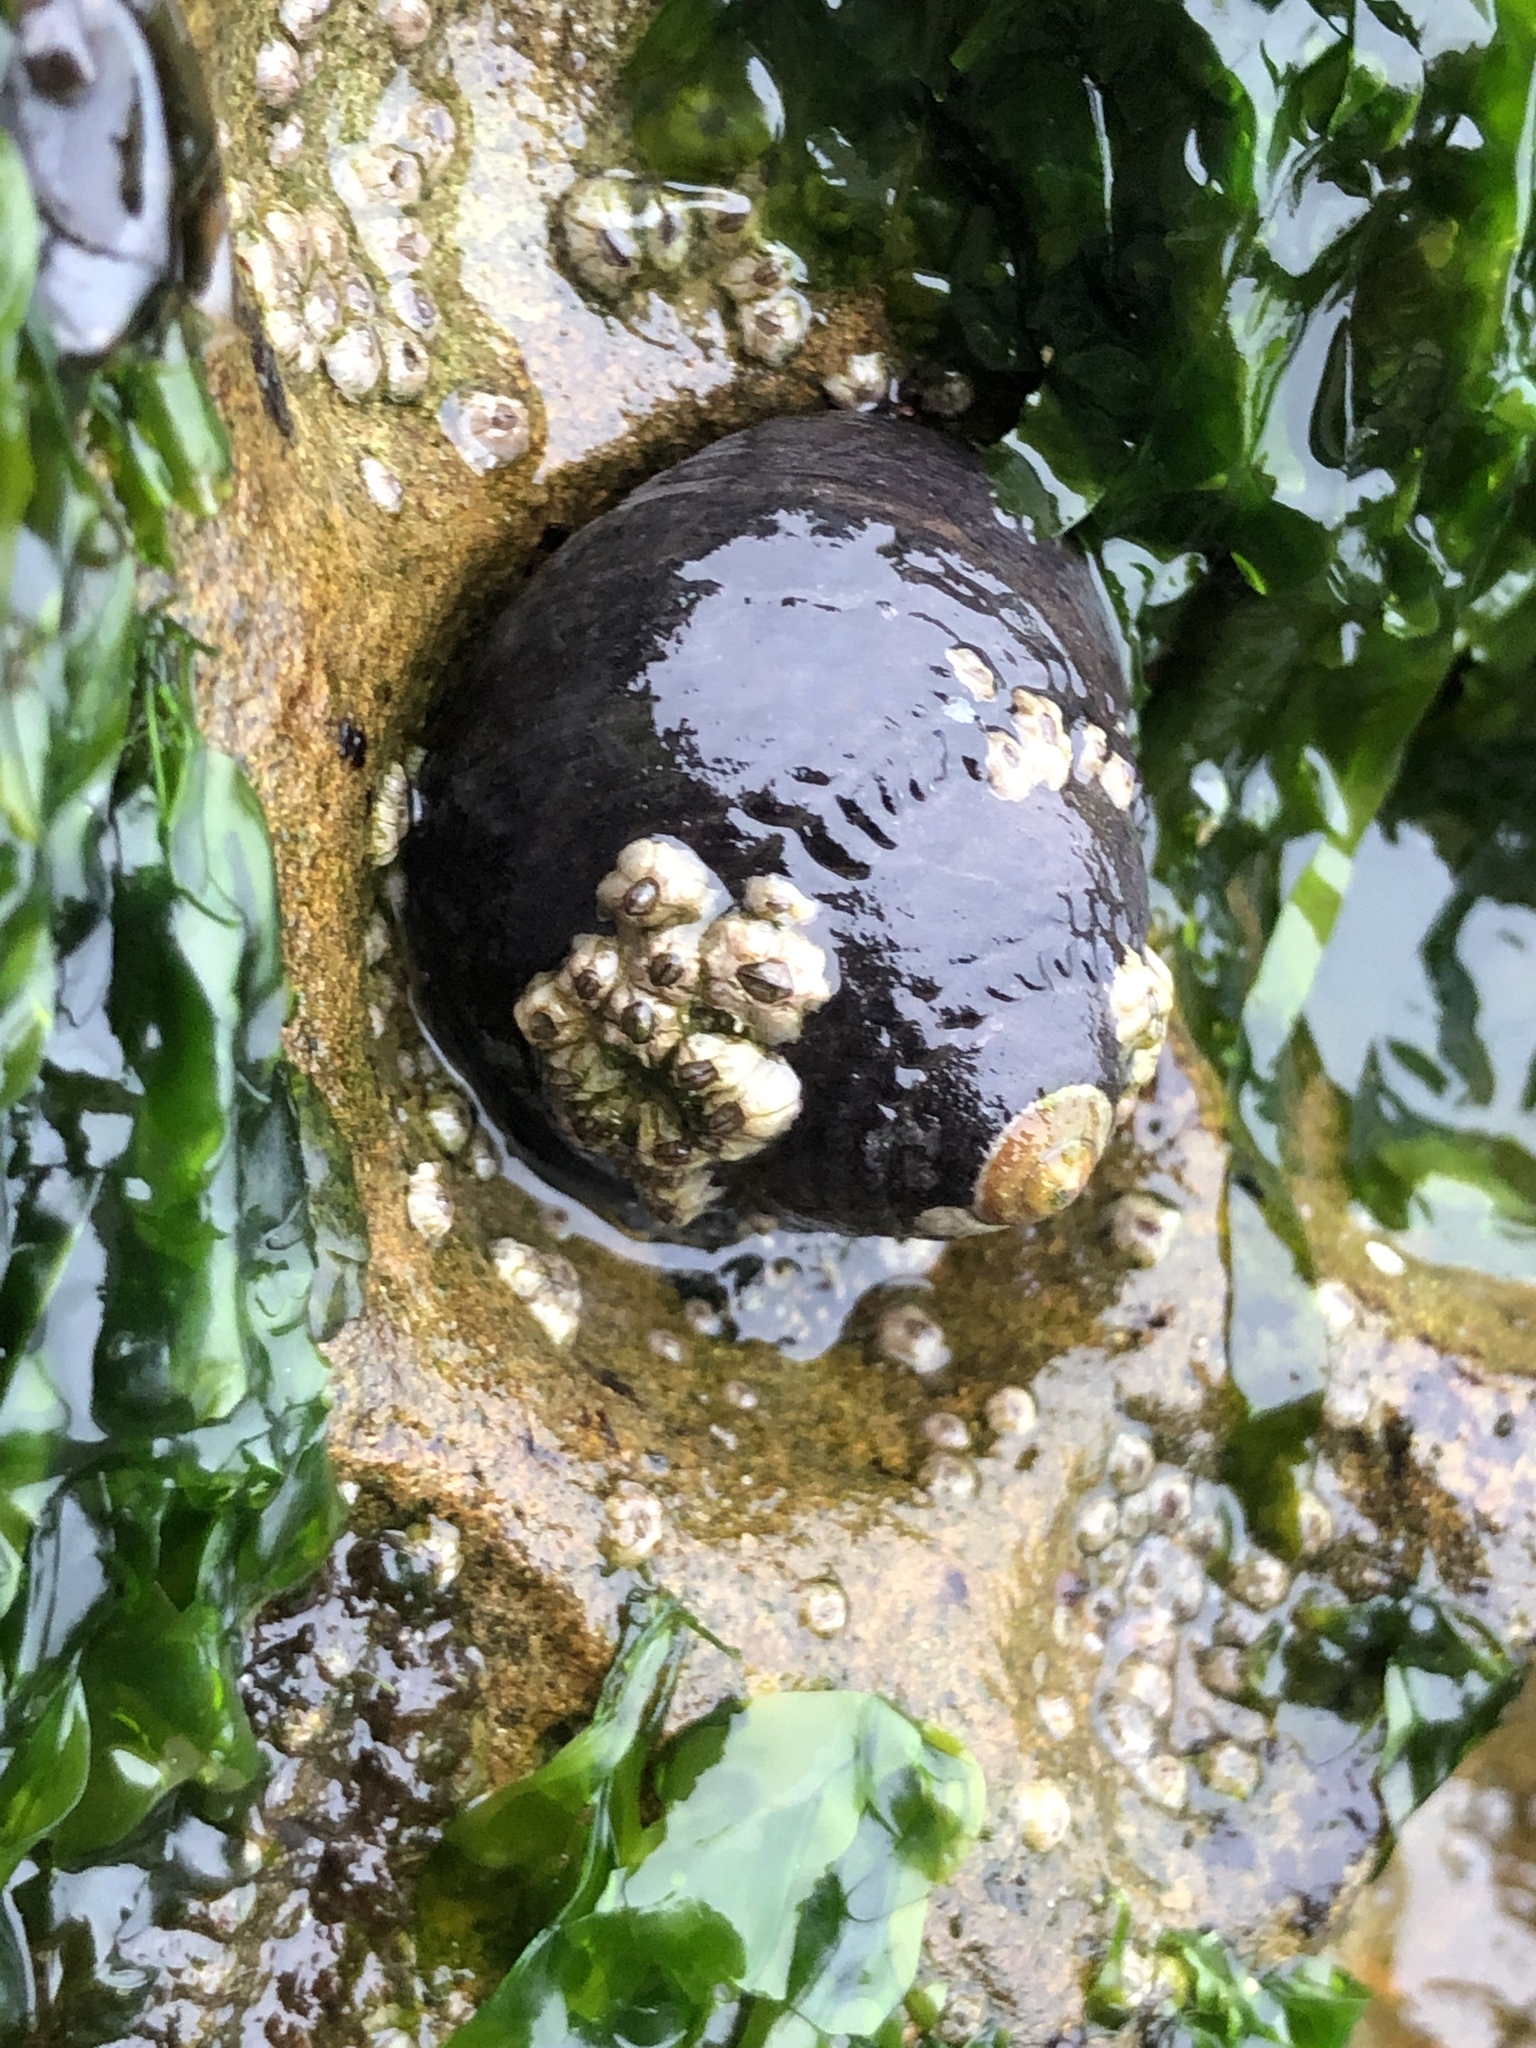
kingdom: Animalia
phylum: Mollusca
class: Gastropoda
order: Trochida
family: Tegulidae
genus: Tegula
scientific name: Tegula funebralis
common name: Black tegula
